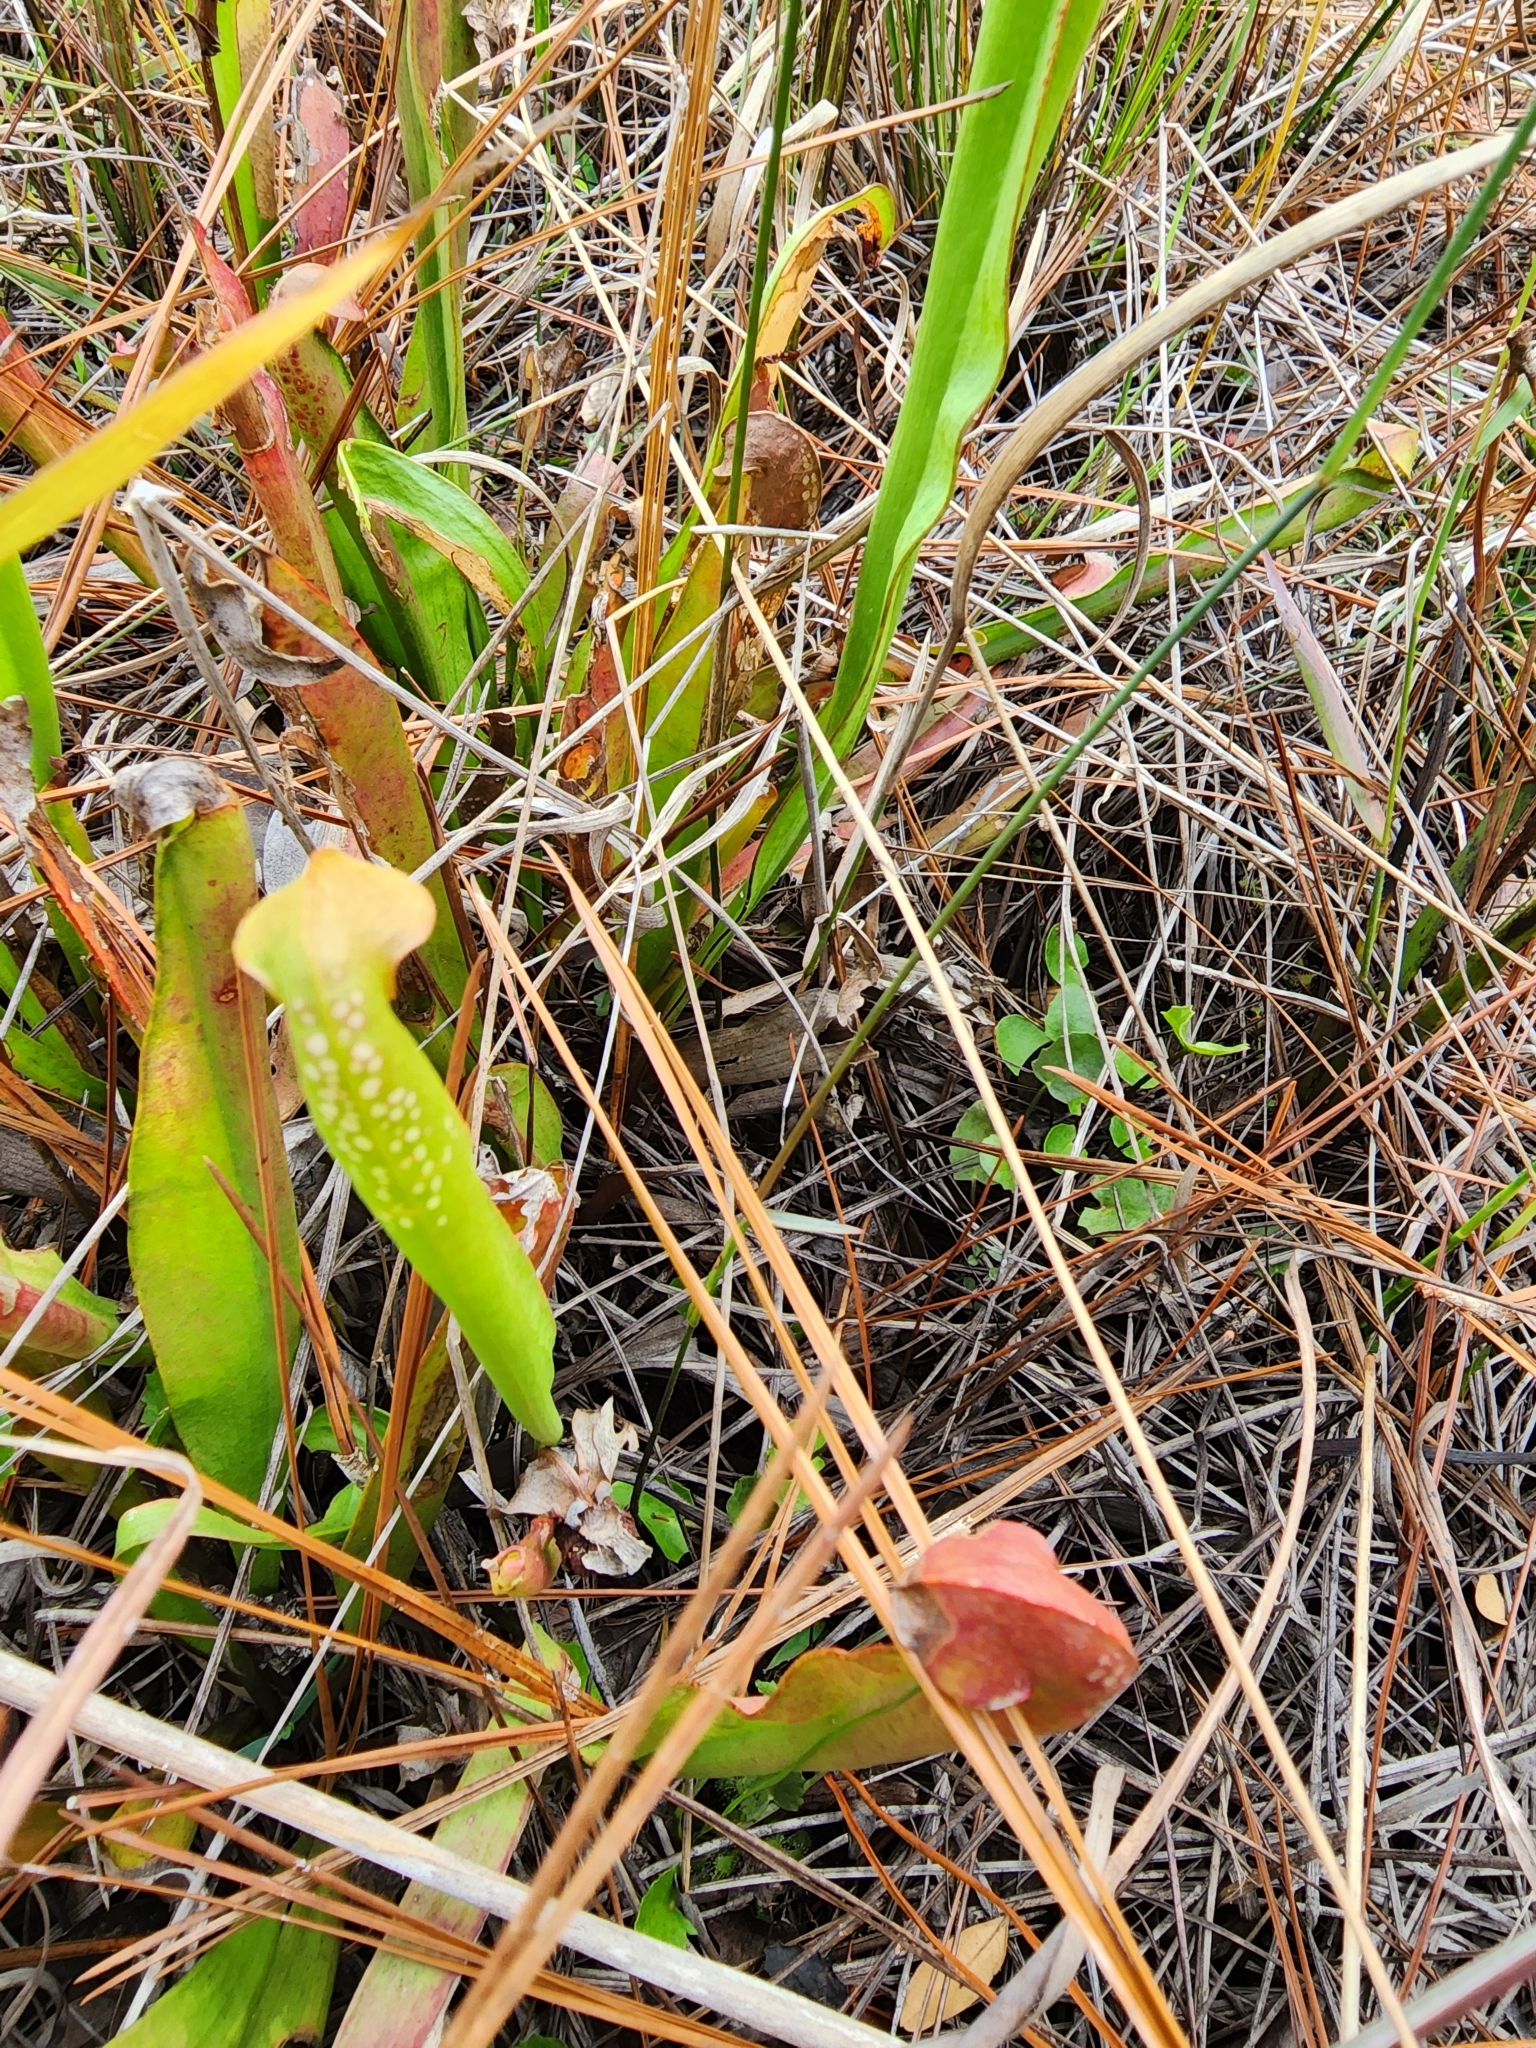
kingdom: Plantae
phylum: Tracheophyta
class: Magnoliopsida
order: Ericales
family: Sarraceniaceae
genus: Sarracenia
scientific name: Sarracenia minor
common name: Rainhat-trumpet
